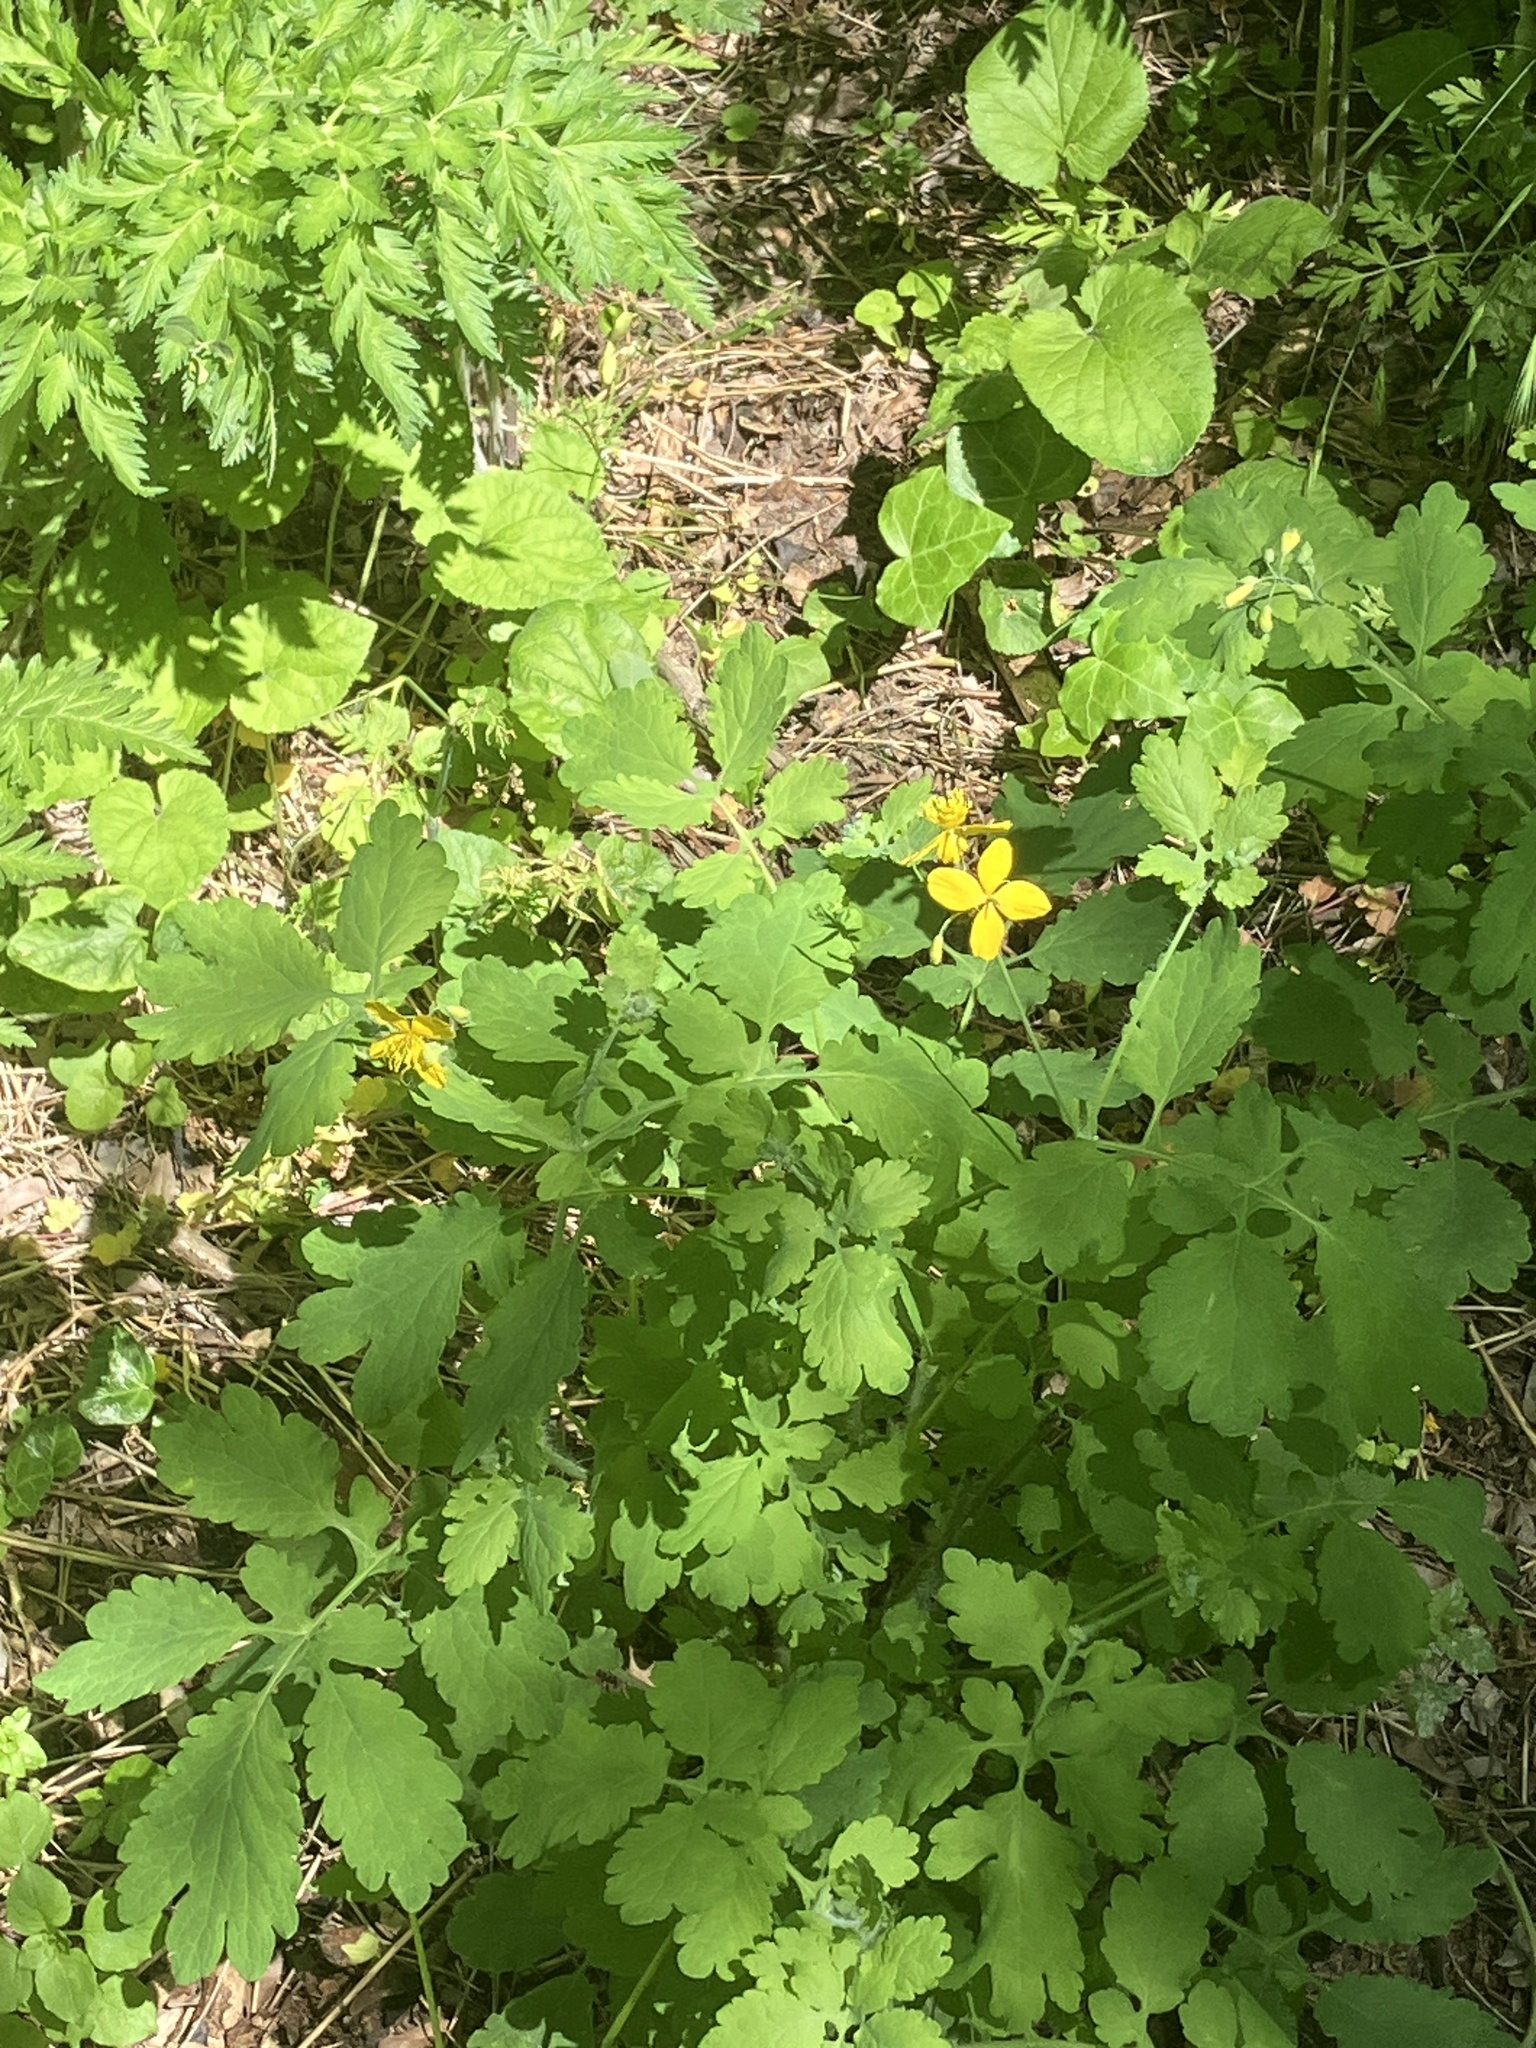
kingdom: Plantae
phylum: Tracheophyta
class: Magnoliopsida
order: Ranunculales
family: Papaveraceae
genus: Chelidonium
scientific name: Chelidonium majus
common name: Greater celandine
